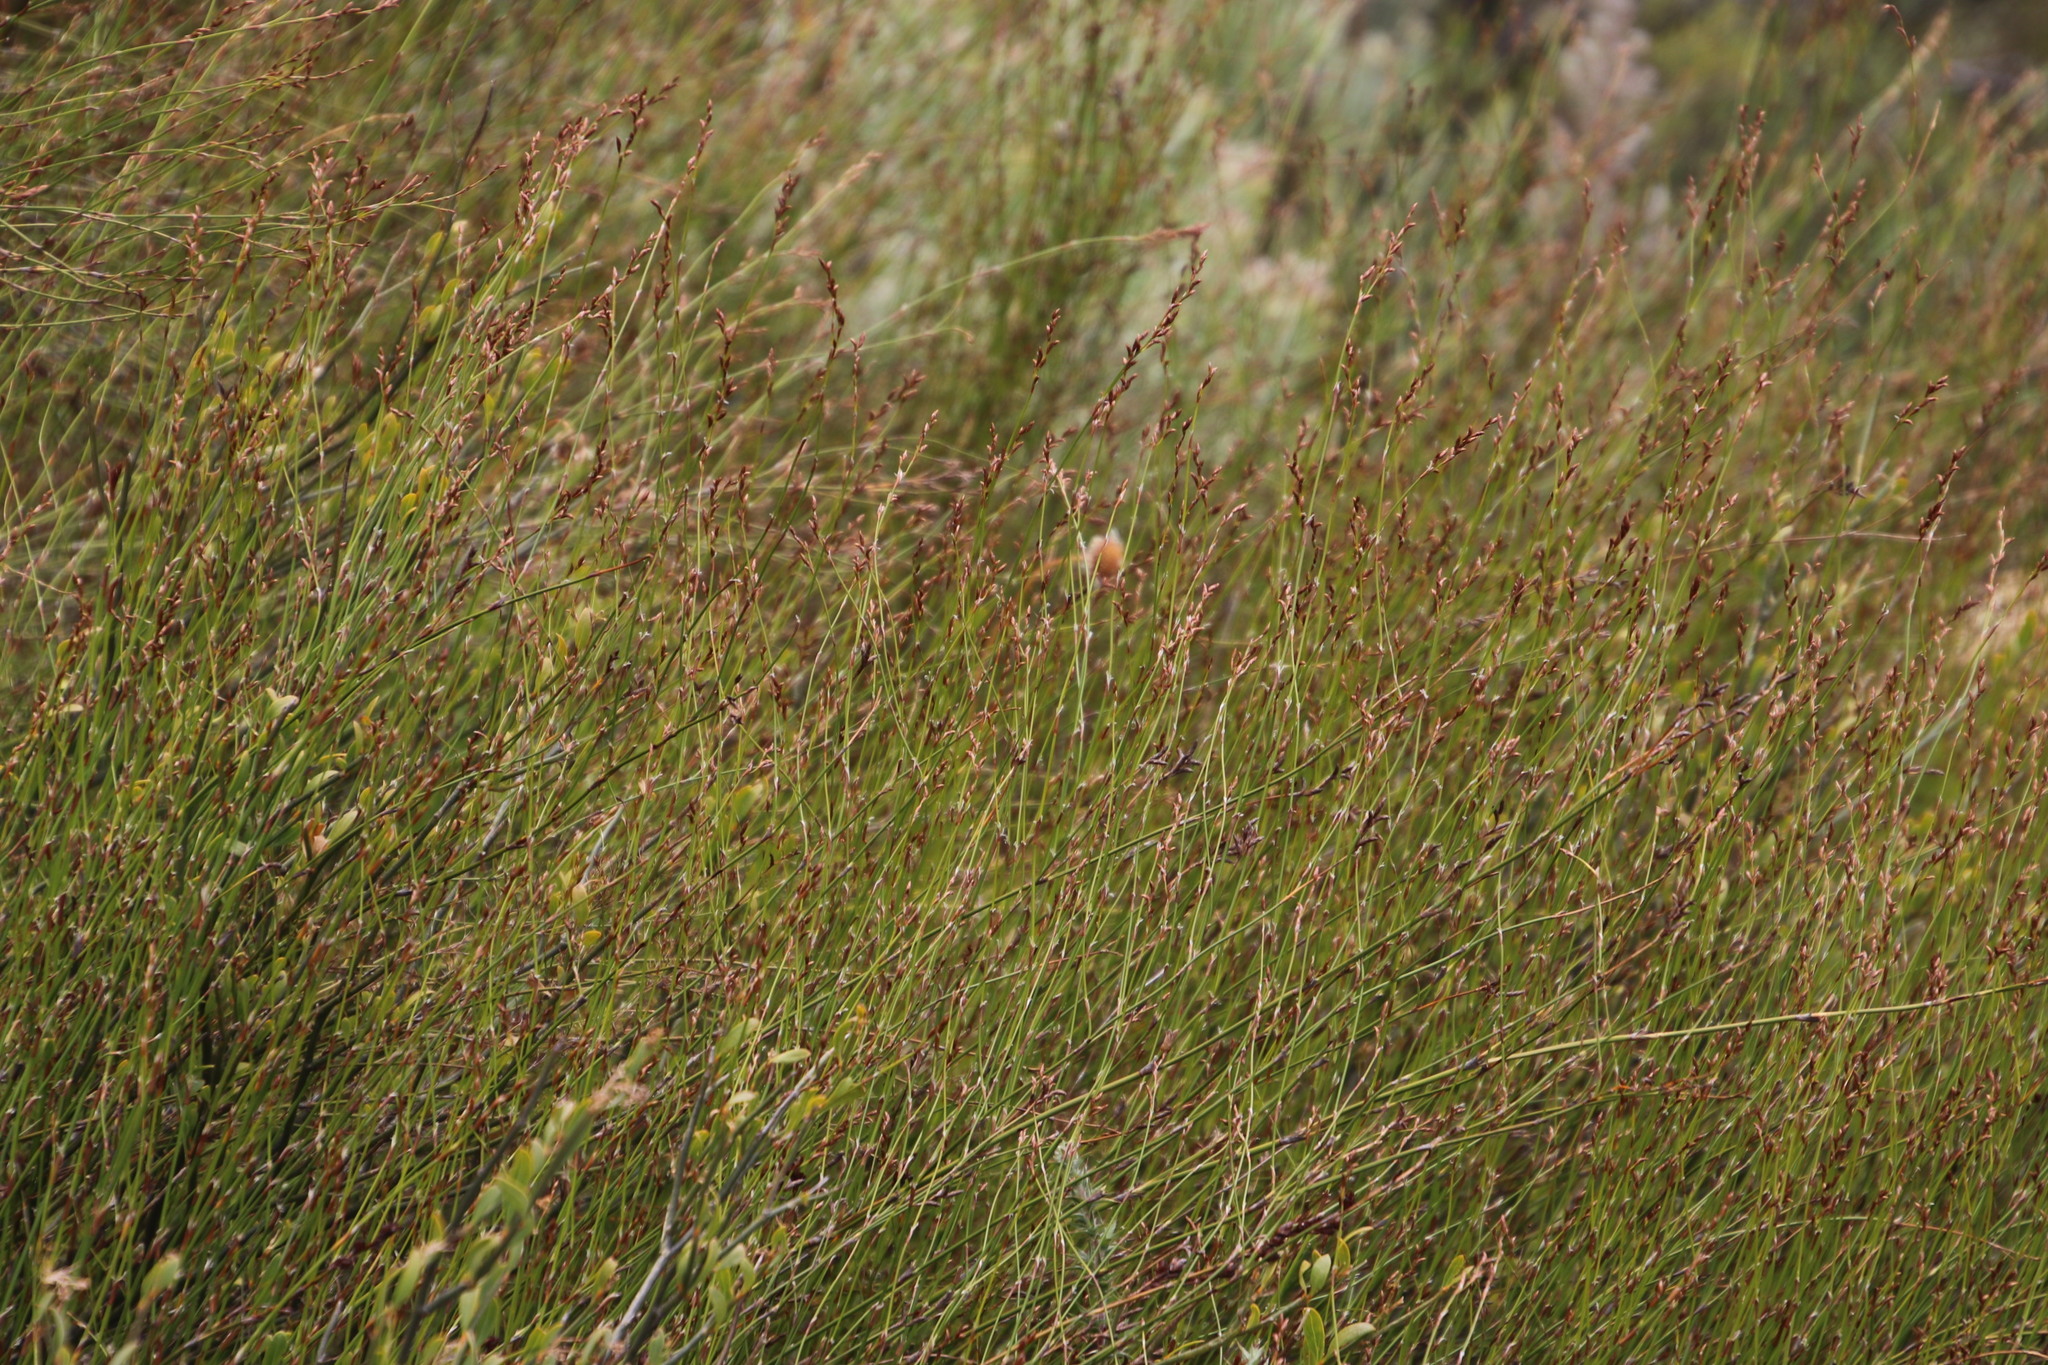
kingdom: Plantae
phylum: Tracheophyta
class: Liliopsida
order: Poales
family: Restionaceae
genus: Restio
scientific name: Restio gaudichaudianus
